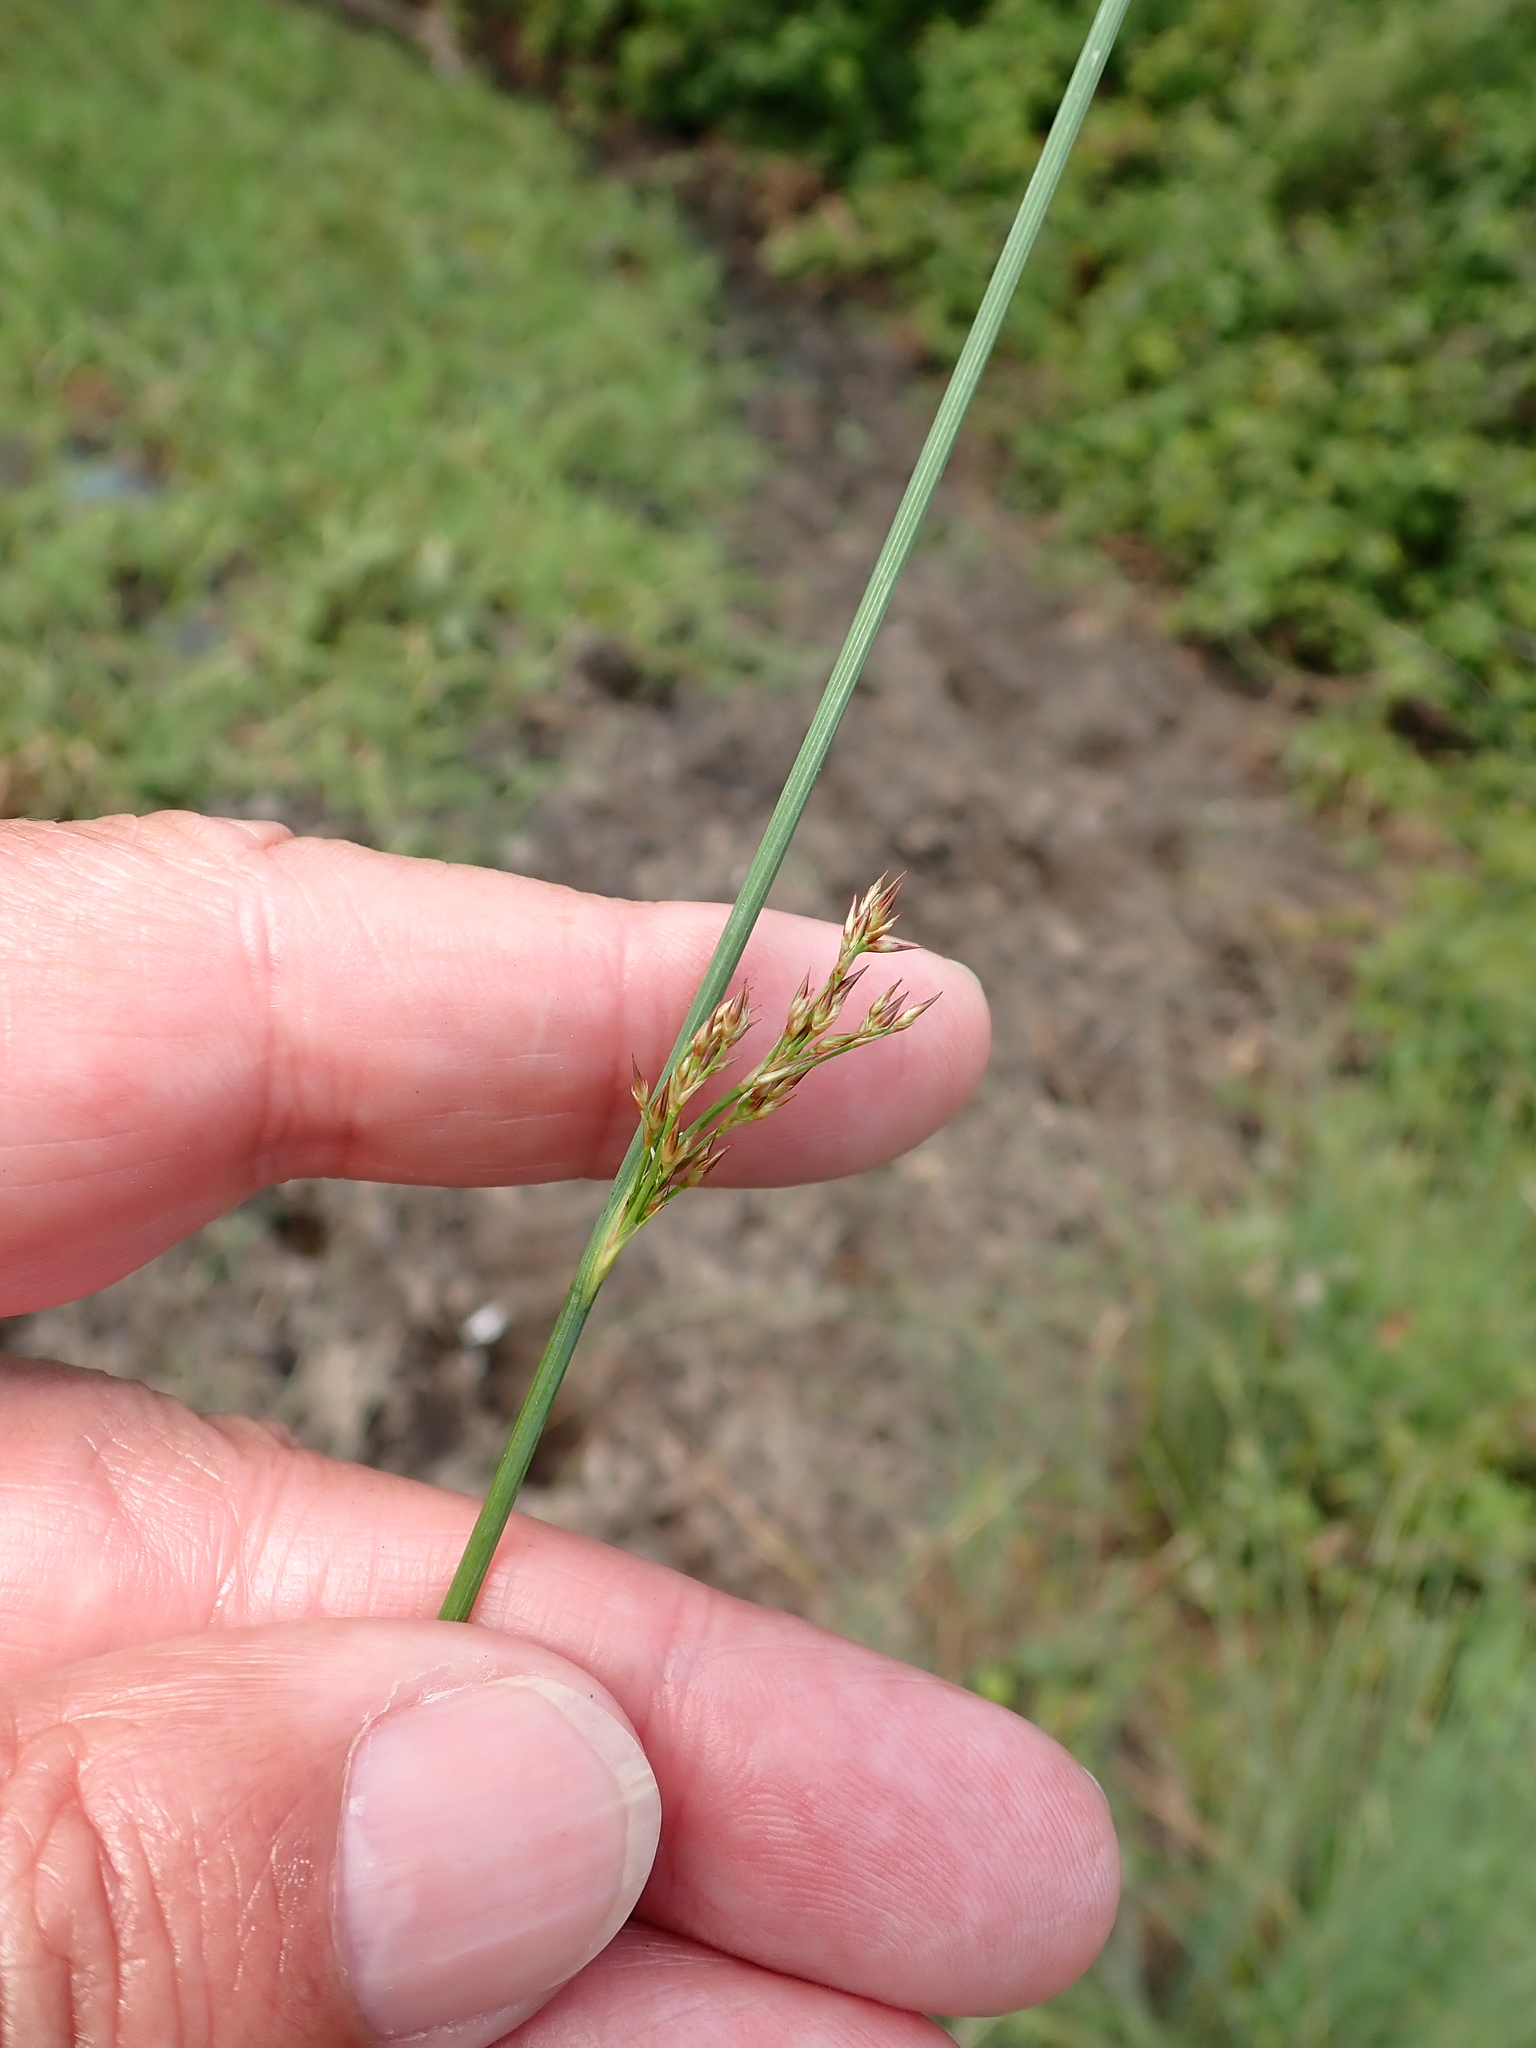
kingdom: Plantae
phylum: Tracheophyta
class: Liliopsida
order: Poales
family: Juncaceae
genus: Juncus
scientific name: Juncus inflexus
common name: Hard rush
